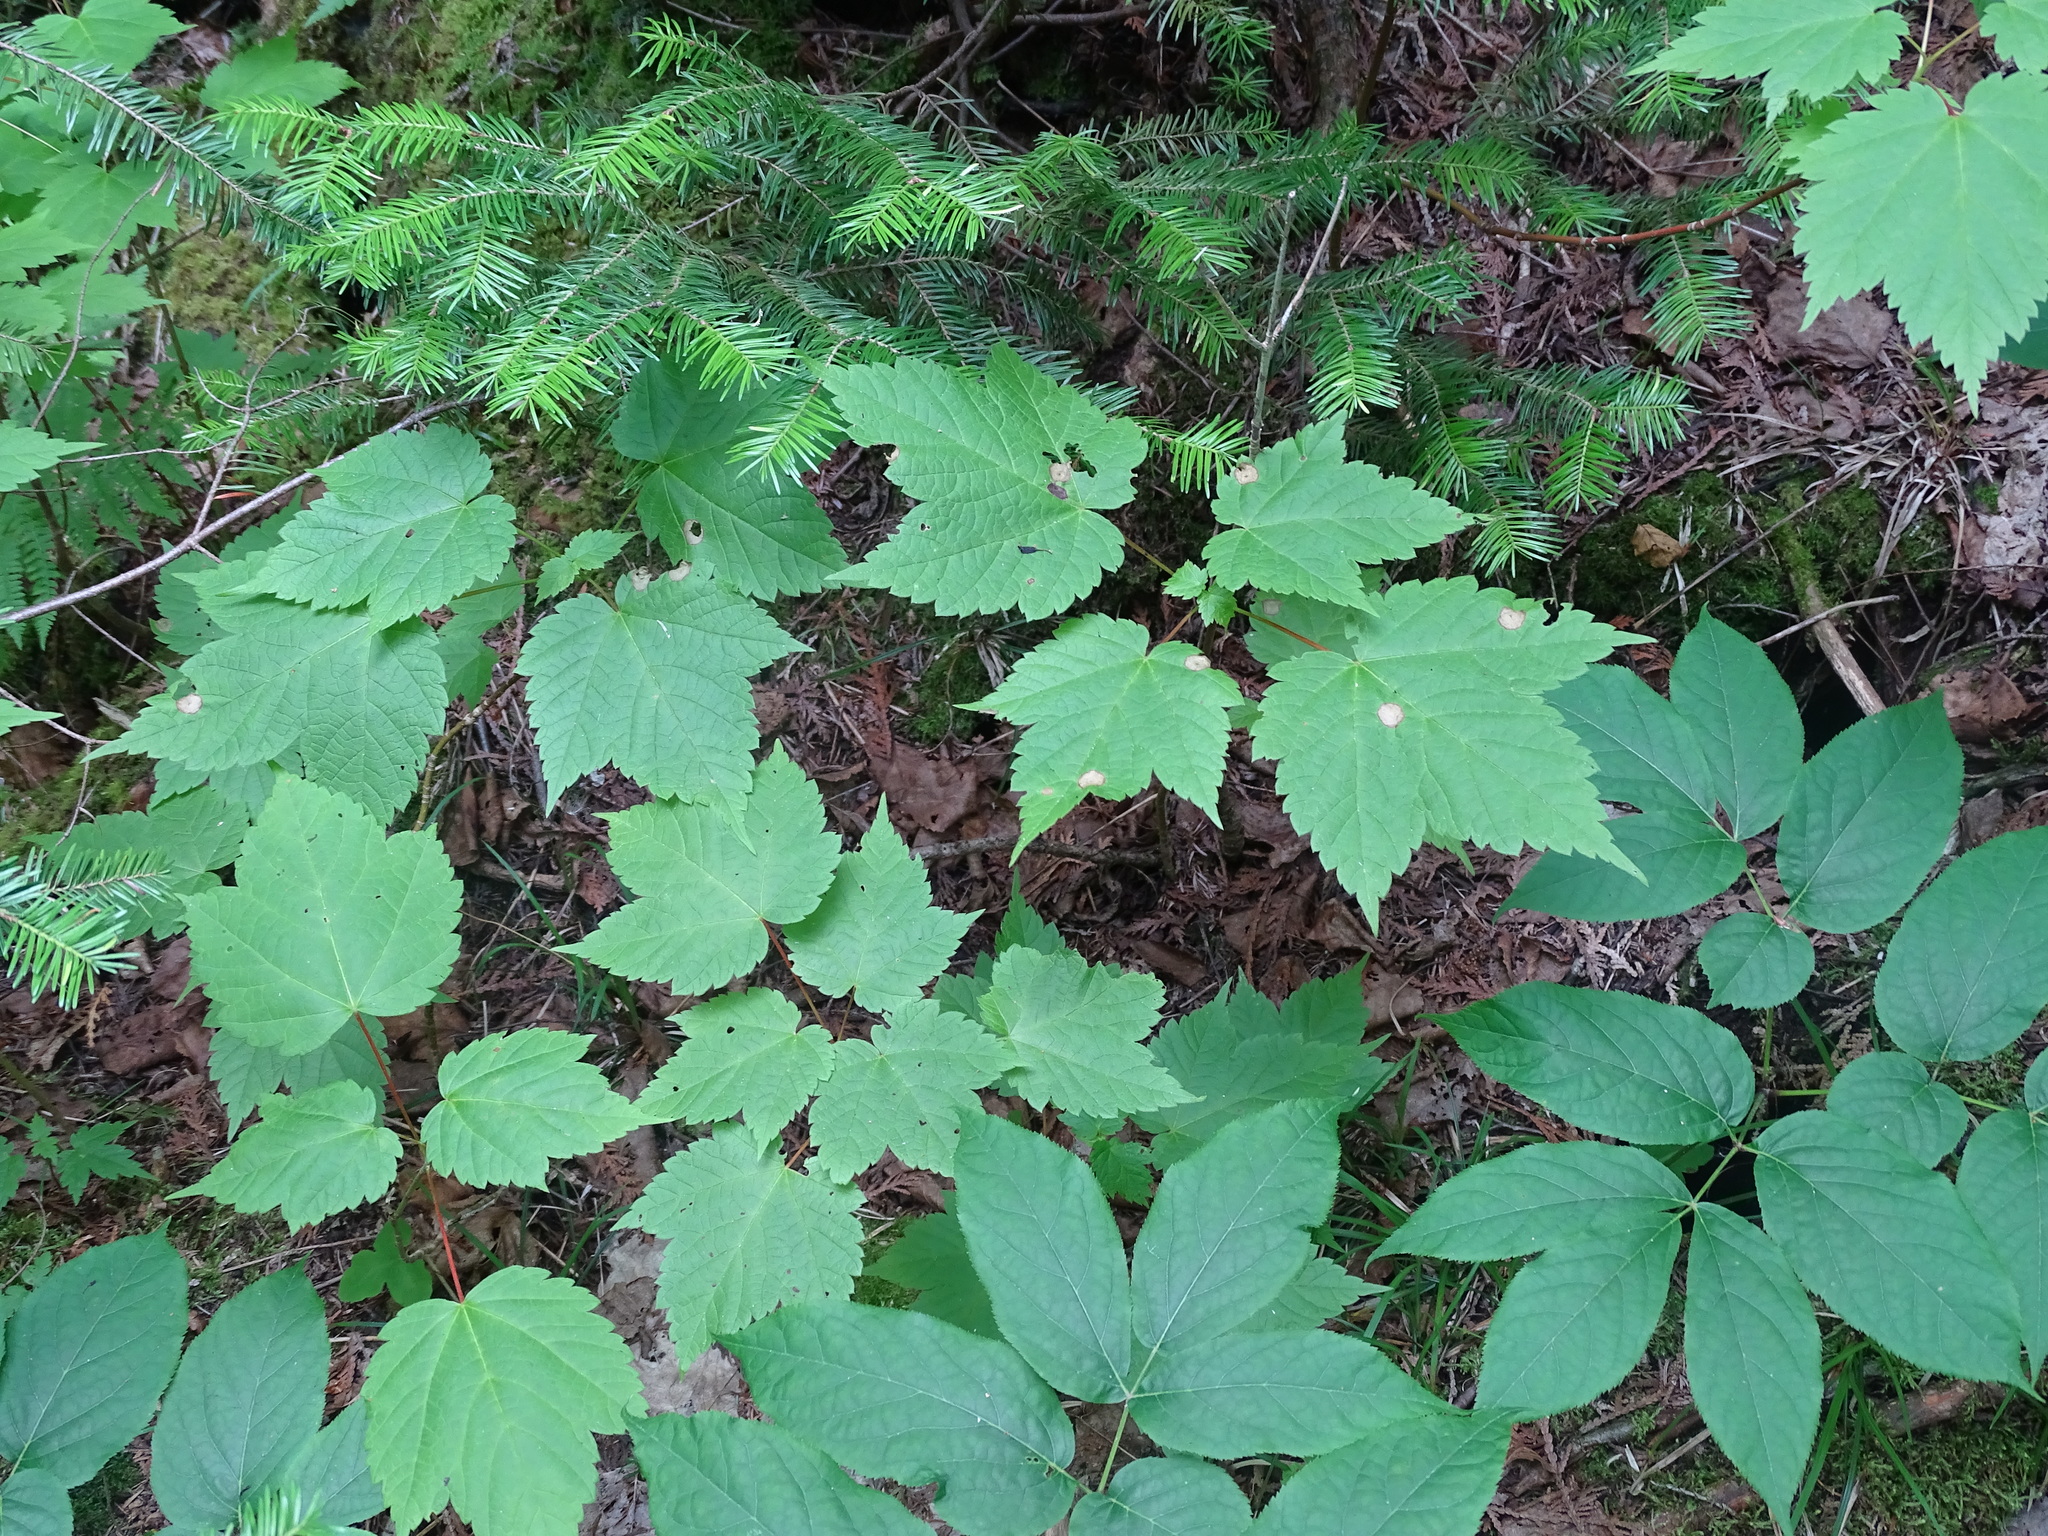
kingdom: Plantae
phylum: Tracheophyta
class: Magnoliopsida
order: Sapindales
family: Sapindaceae
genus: Acer
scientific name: Acer spicatum
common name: Mountain maple
